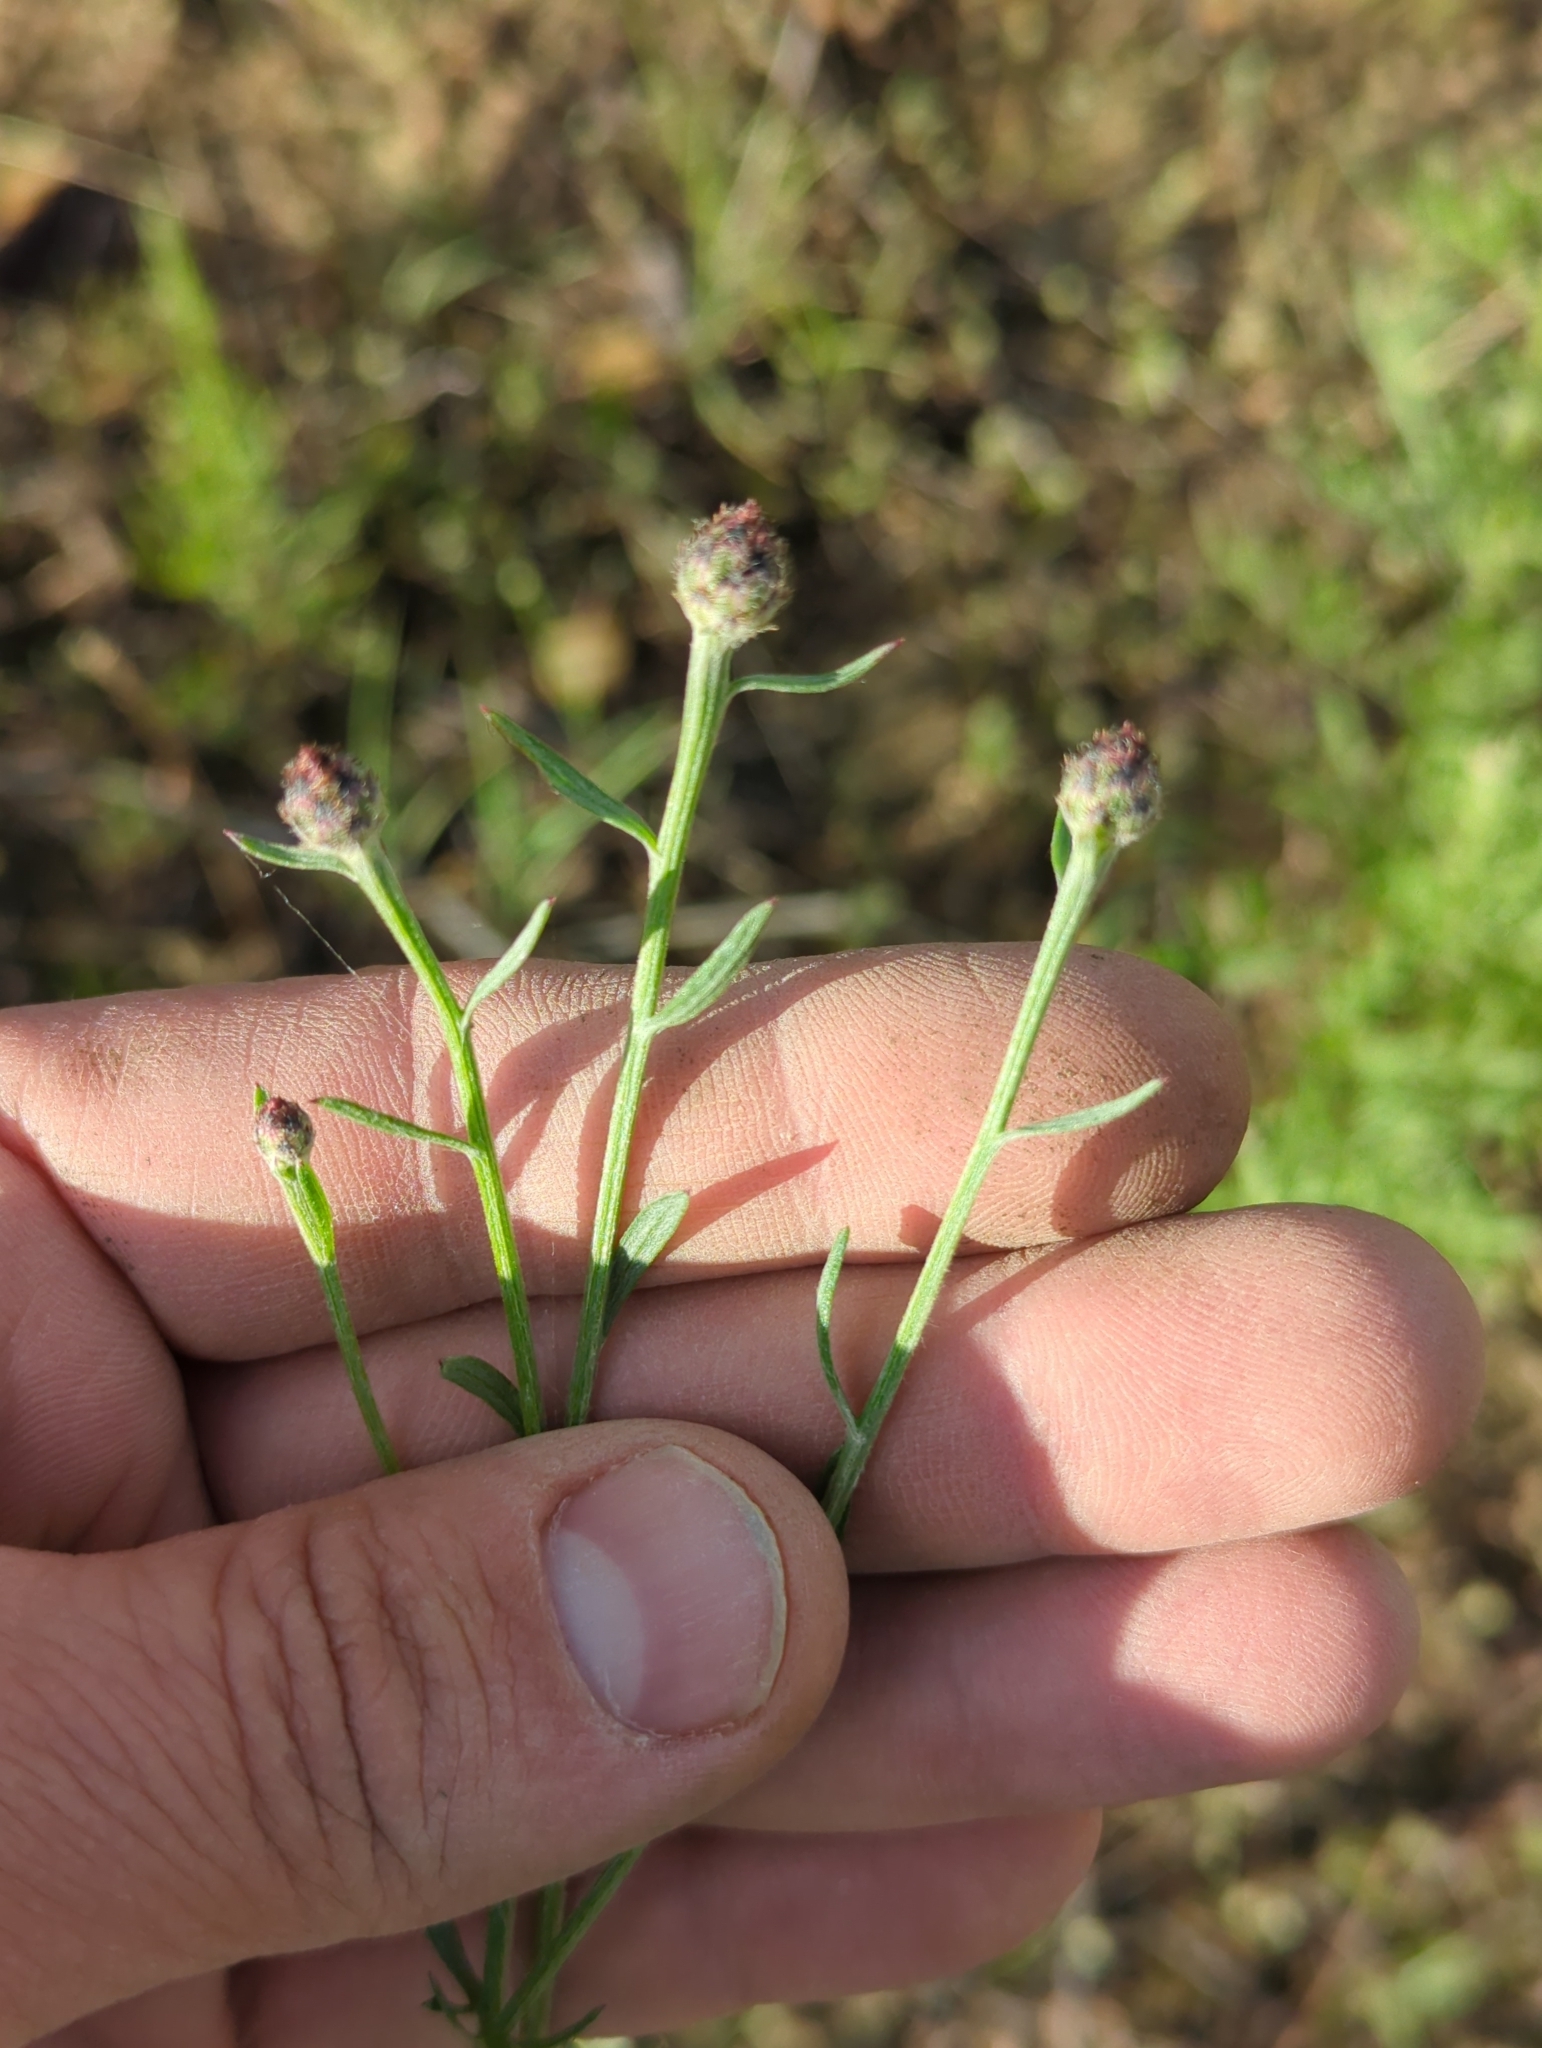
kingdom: Plantae
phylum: Tracheophyta
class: Magnoliopsida
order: Asterales
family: Asteraceae
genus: Centaurea
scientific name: Centaurea stoebe
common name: Spotted knapweed
